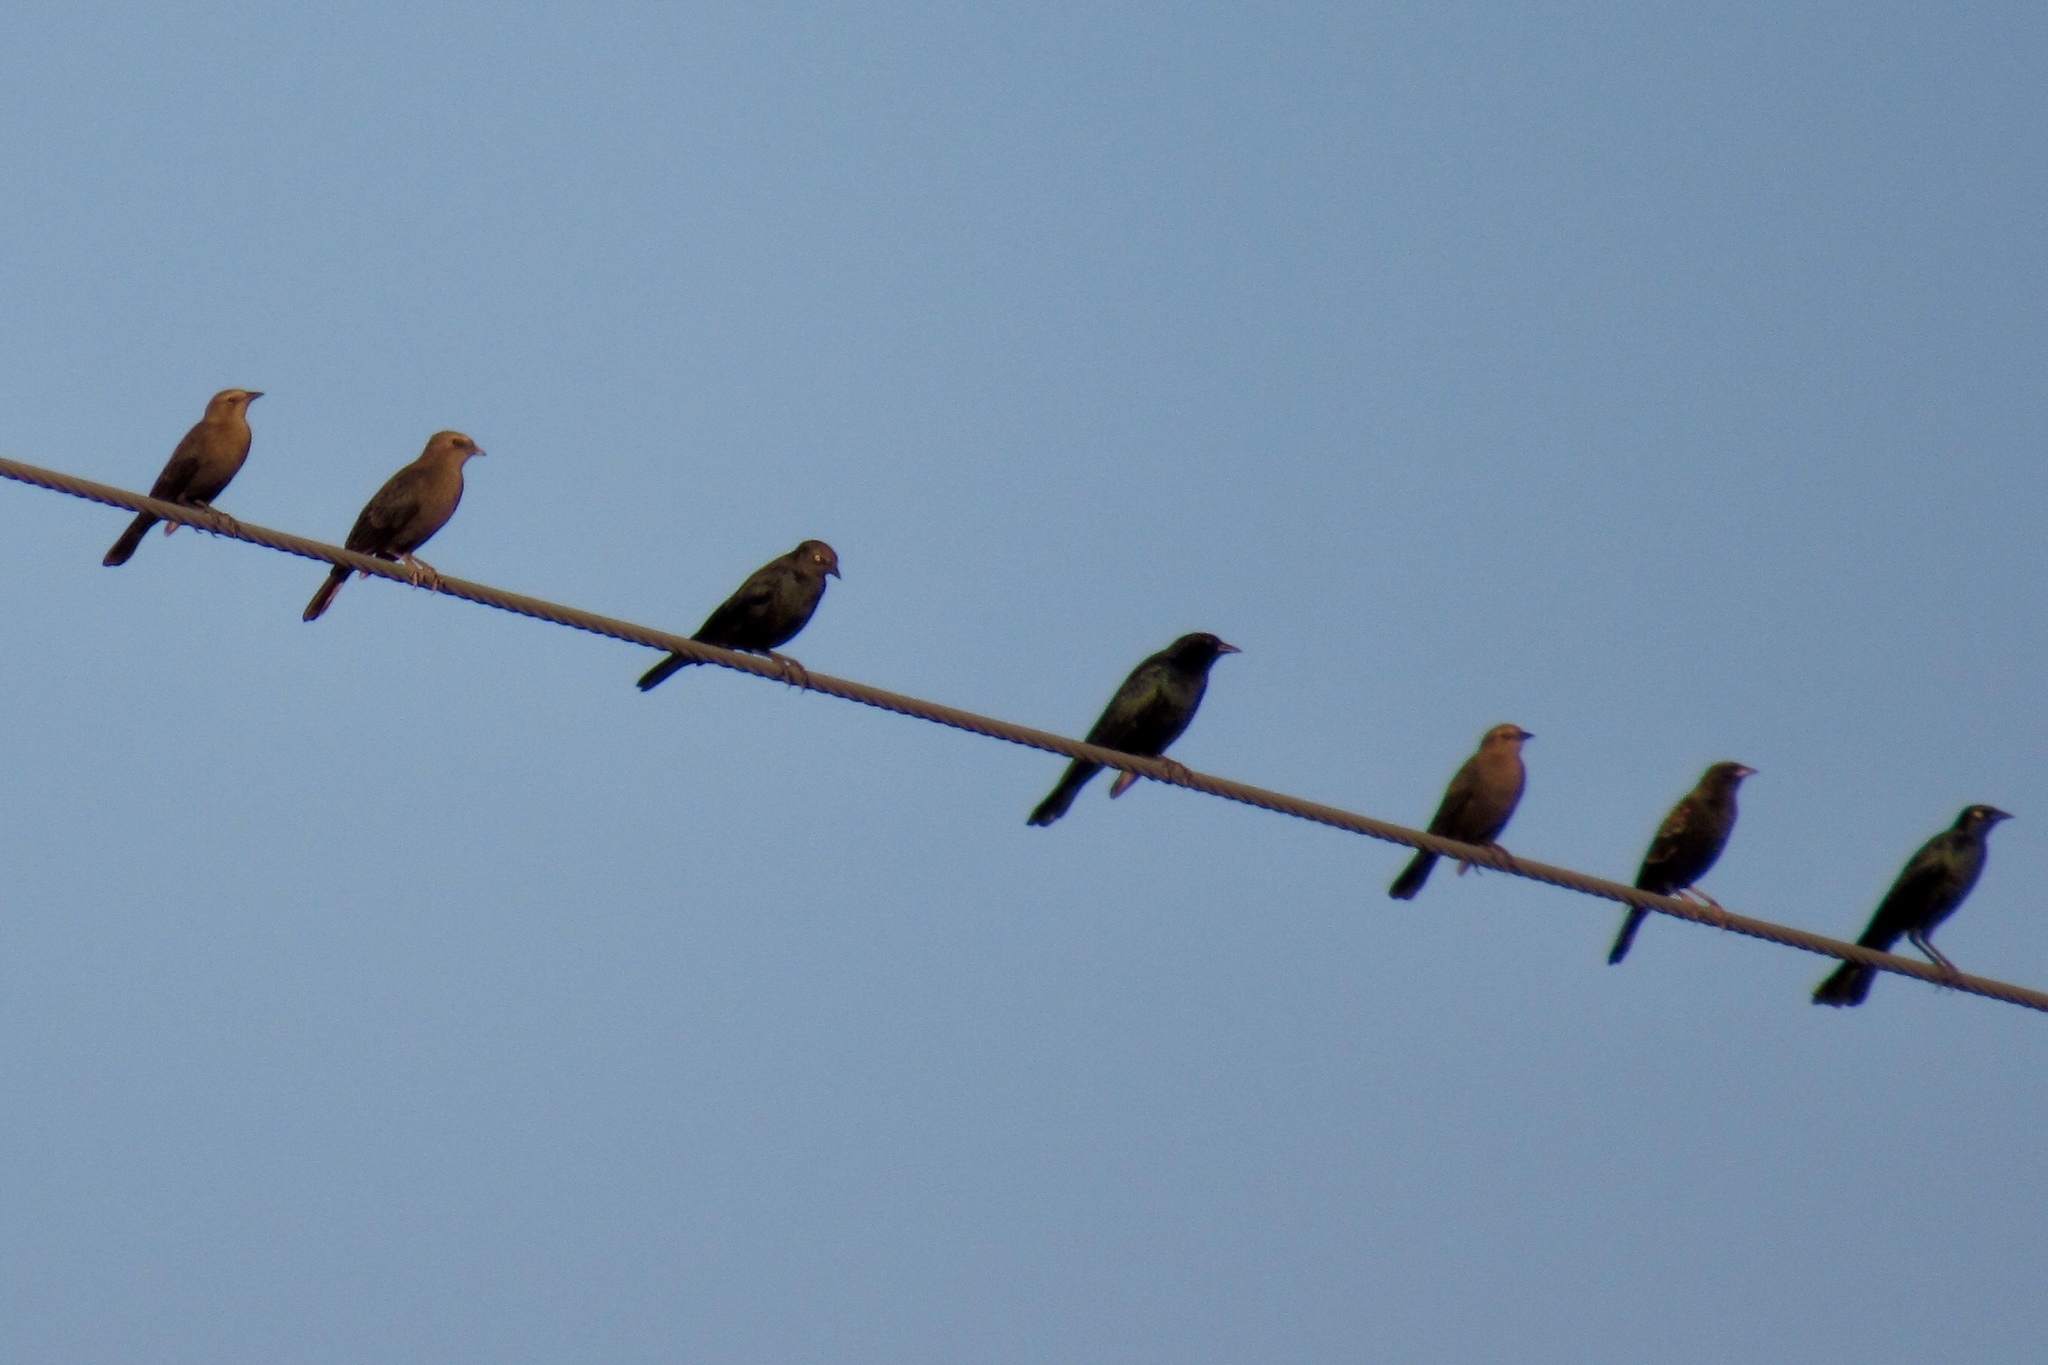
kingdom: Animalia
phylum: Chordata
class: Aves
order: Passeriformes
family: Icteridae
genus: Euphagus
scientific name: Euphagus cyanocephalus
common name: Brewer's blackbird
